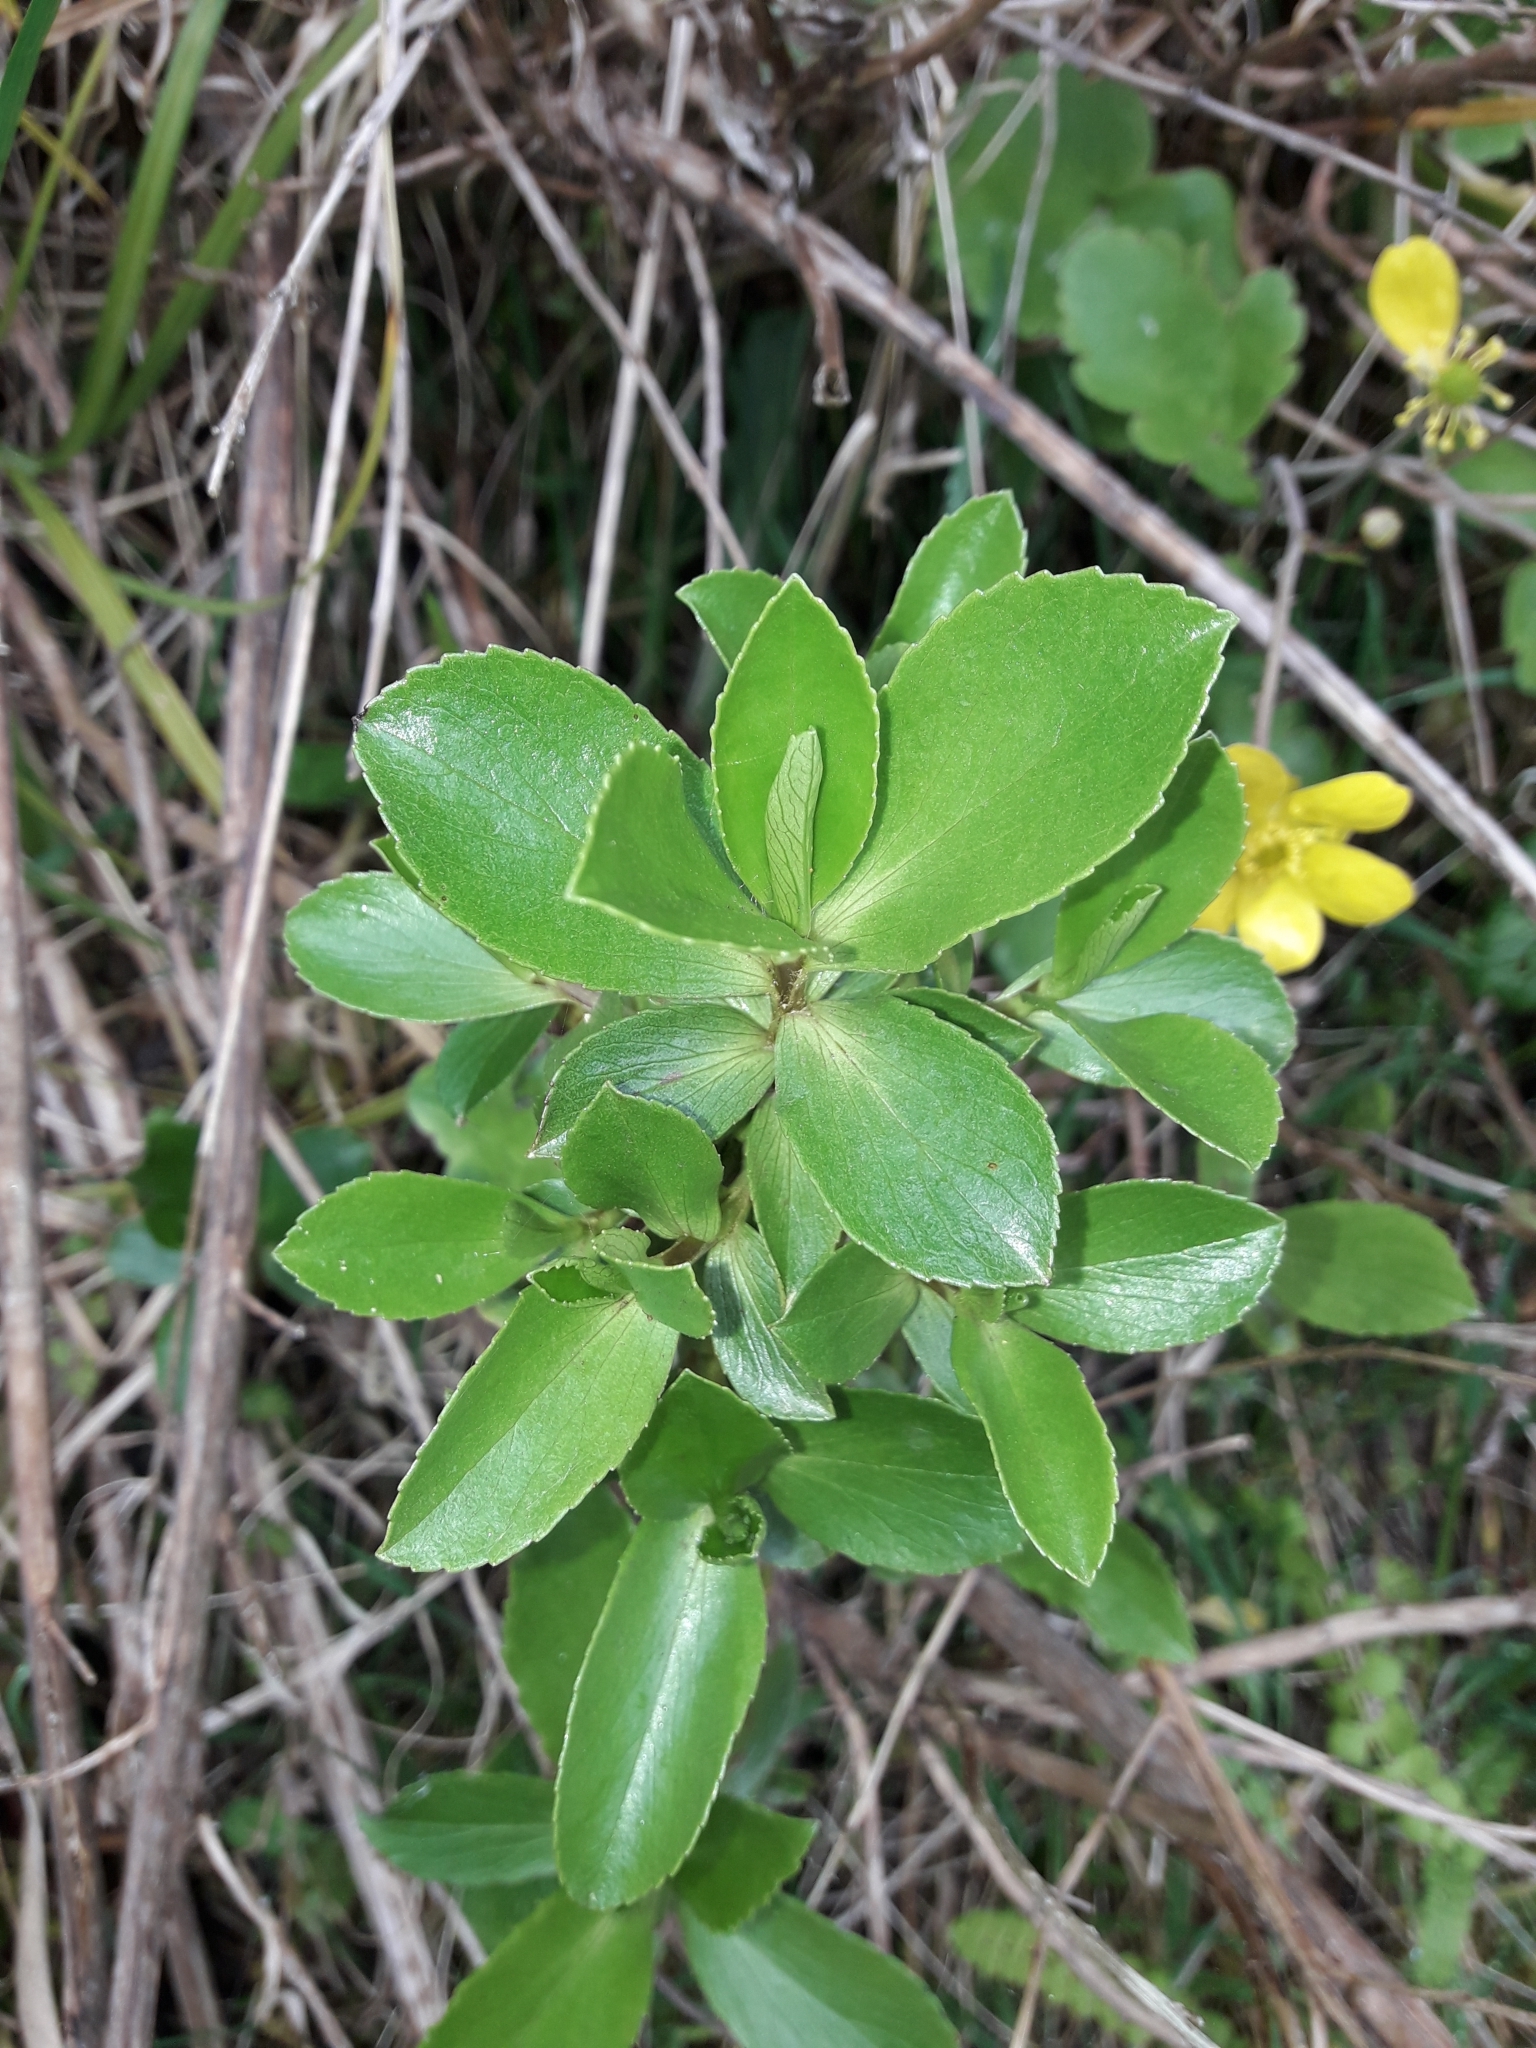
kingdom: Plantae
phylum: Tracheophyta
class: Magnoliopsida
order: Asterales
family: Asteraceae
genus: Traversia
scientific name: Traversia baccharoides
